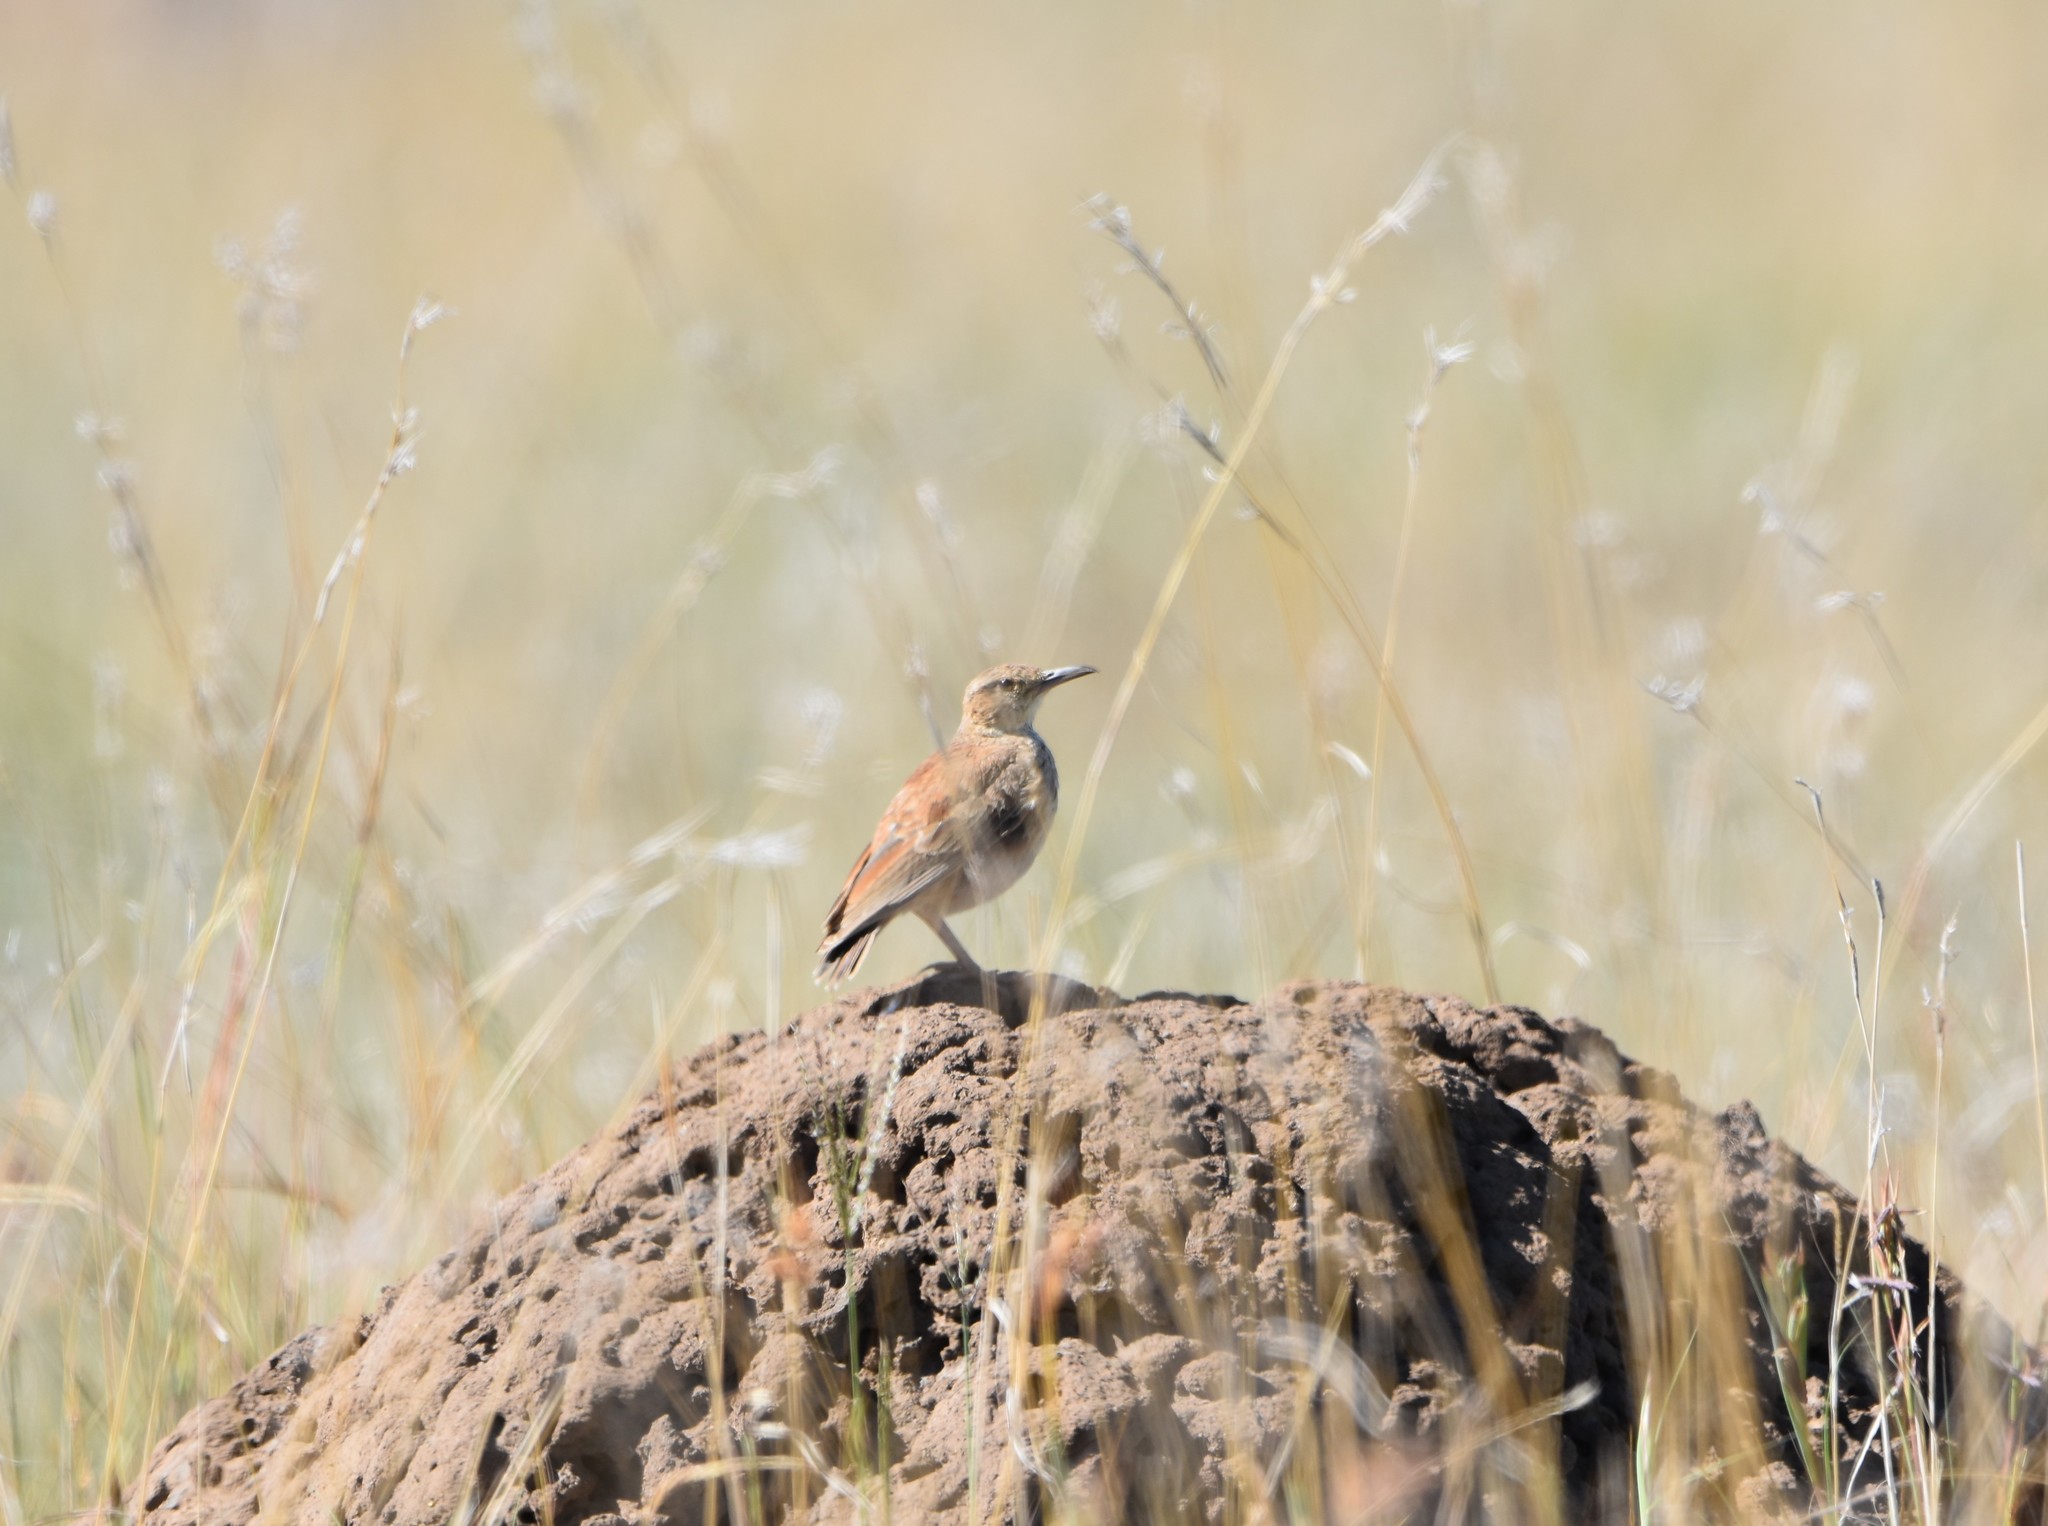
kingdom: Animalia
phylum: Chordata
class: Aves
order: Passeriformes
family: Alaudidae
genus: Certhilauda
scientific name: Certhilauda semitorquata
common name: Eastern long-billed lark
